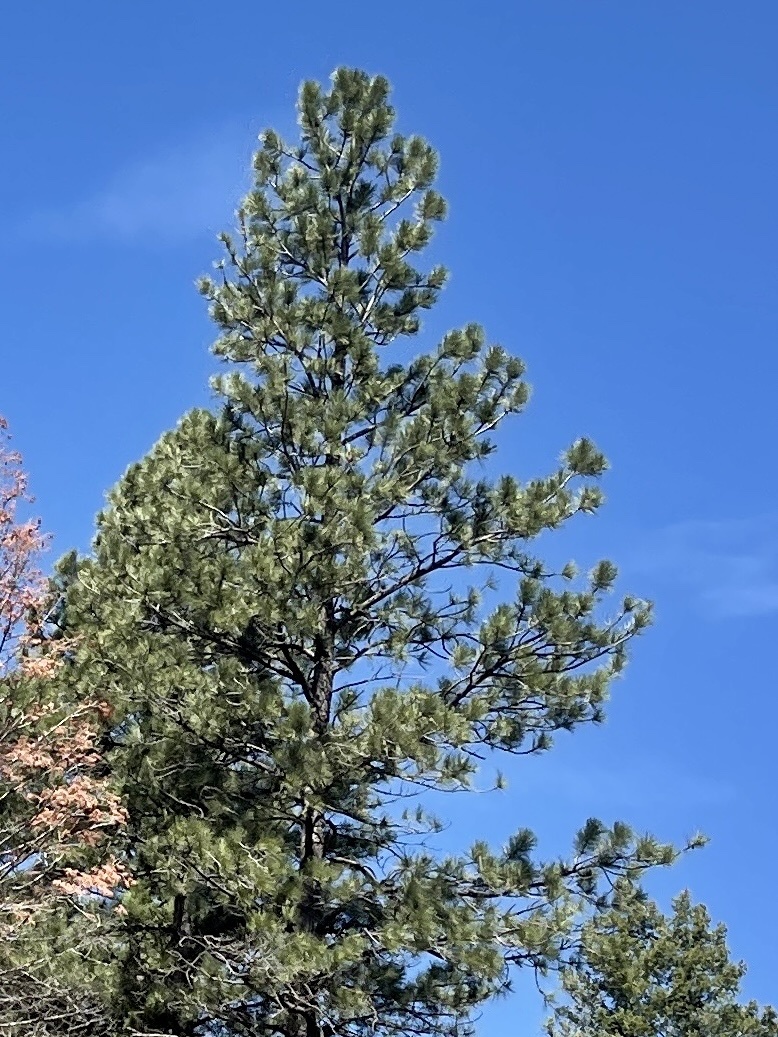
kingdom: Plantae
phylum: Tracheophyta
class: Pinopsida
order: Pinales
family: Pinaceae
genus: Pinus
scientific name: Pinus ponderosa
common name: Western yellow-pine
